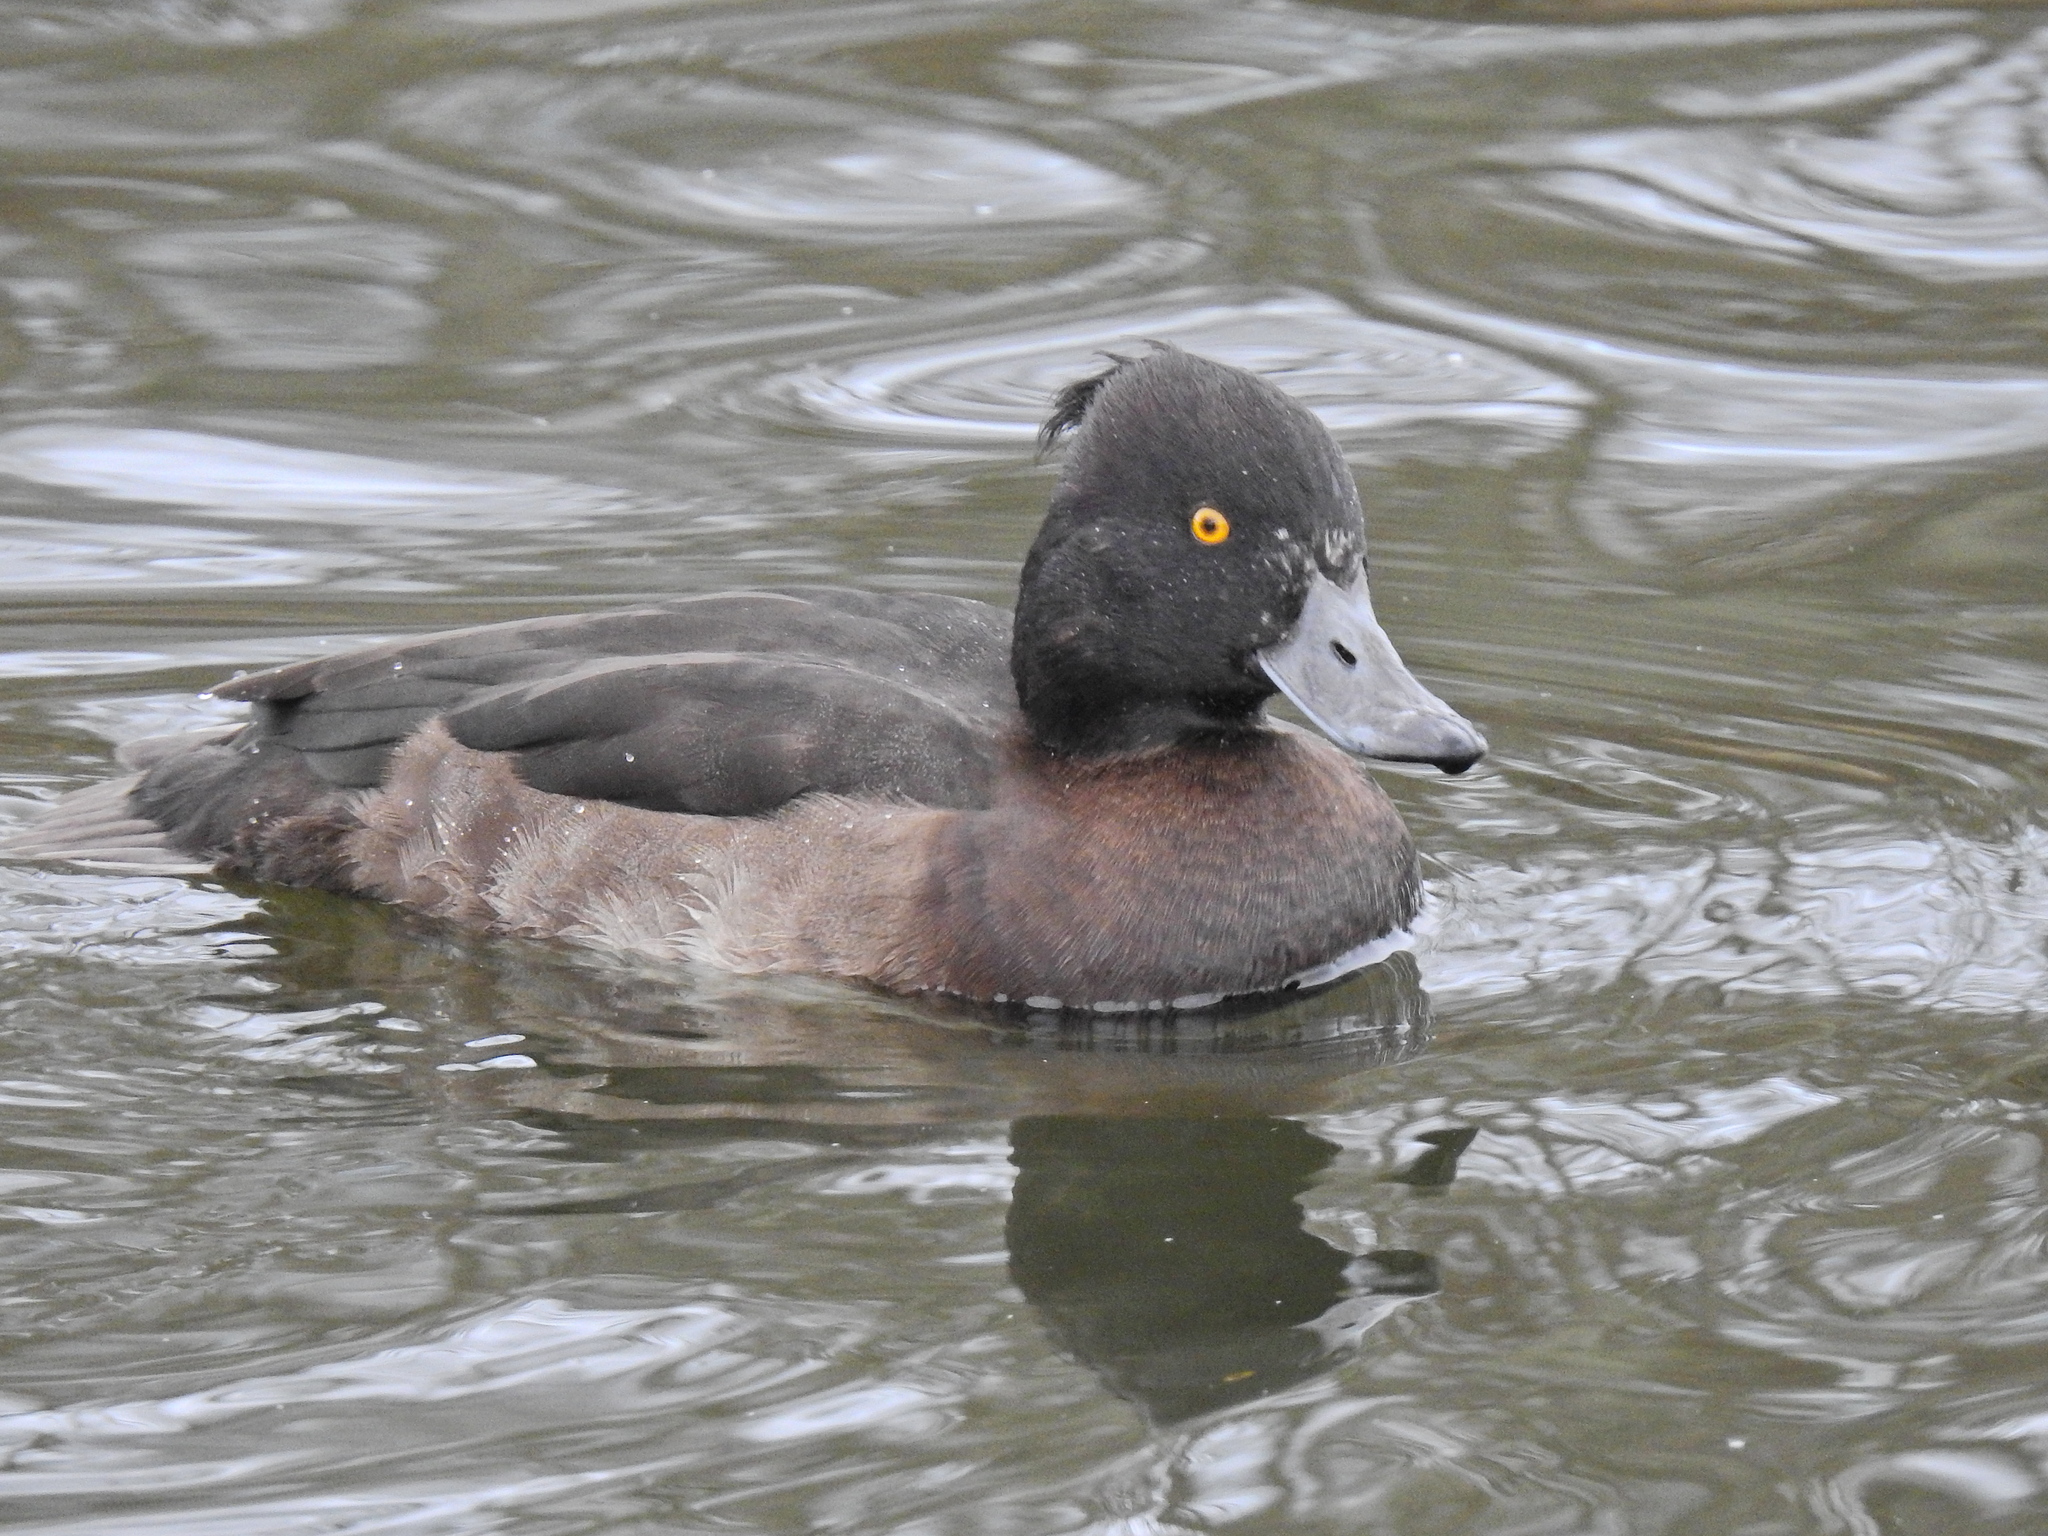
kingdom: Animalia
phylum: Chordata
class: Aves
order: Anseriformes
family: Anatidae
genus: Aythya
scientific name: Aythya fuligula
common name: Tufted duck
